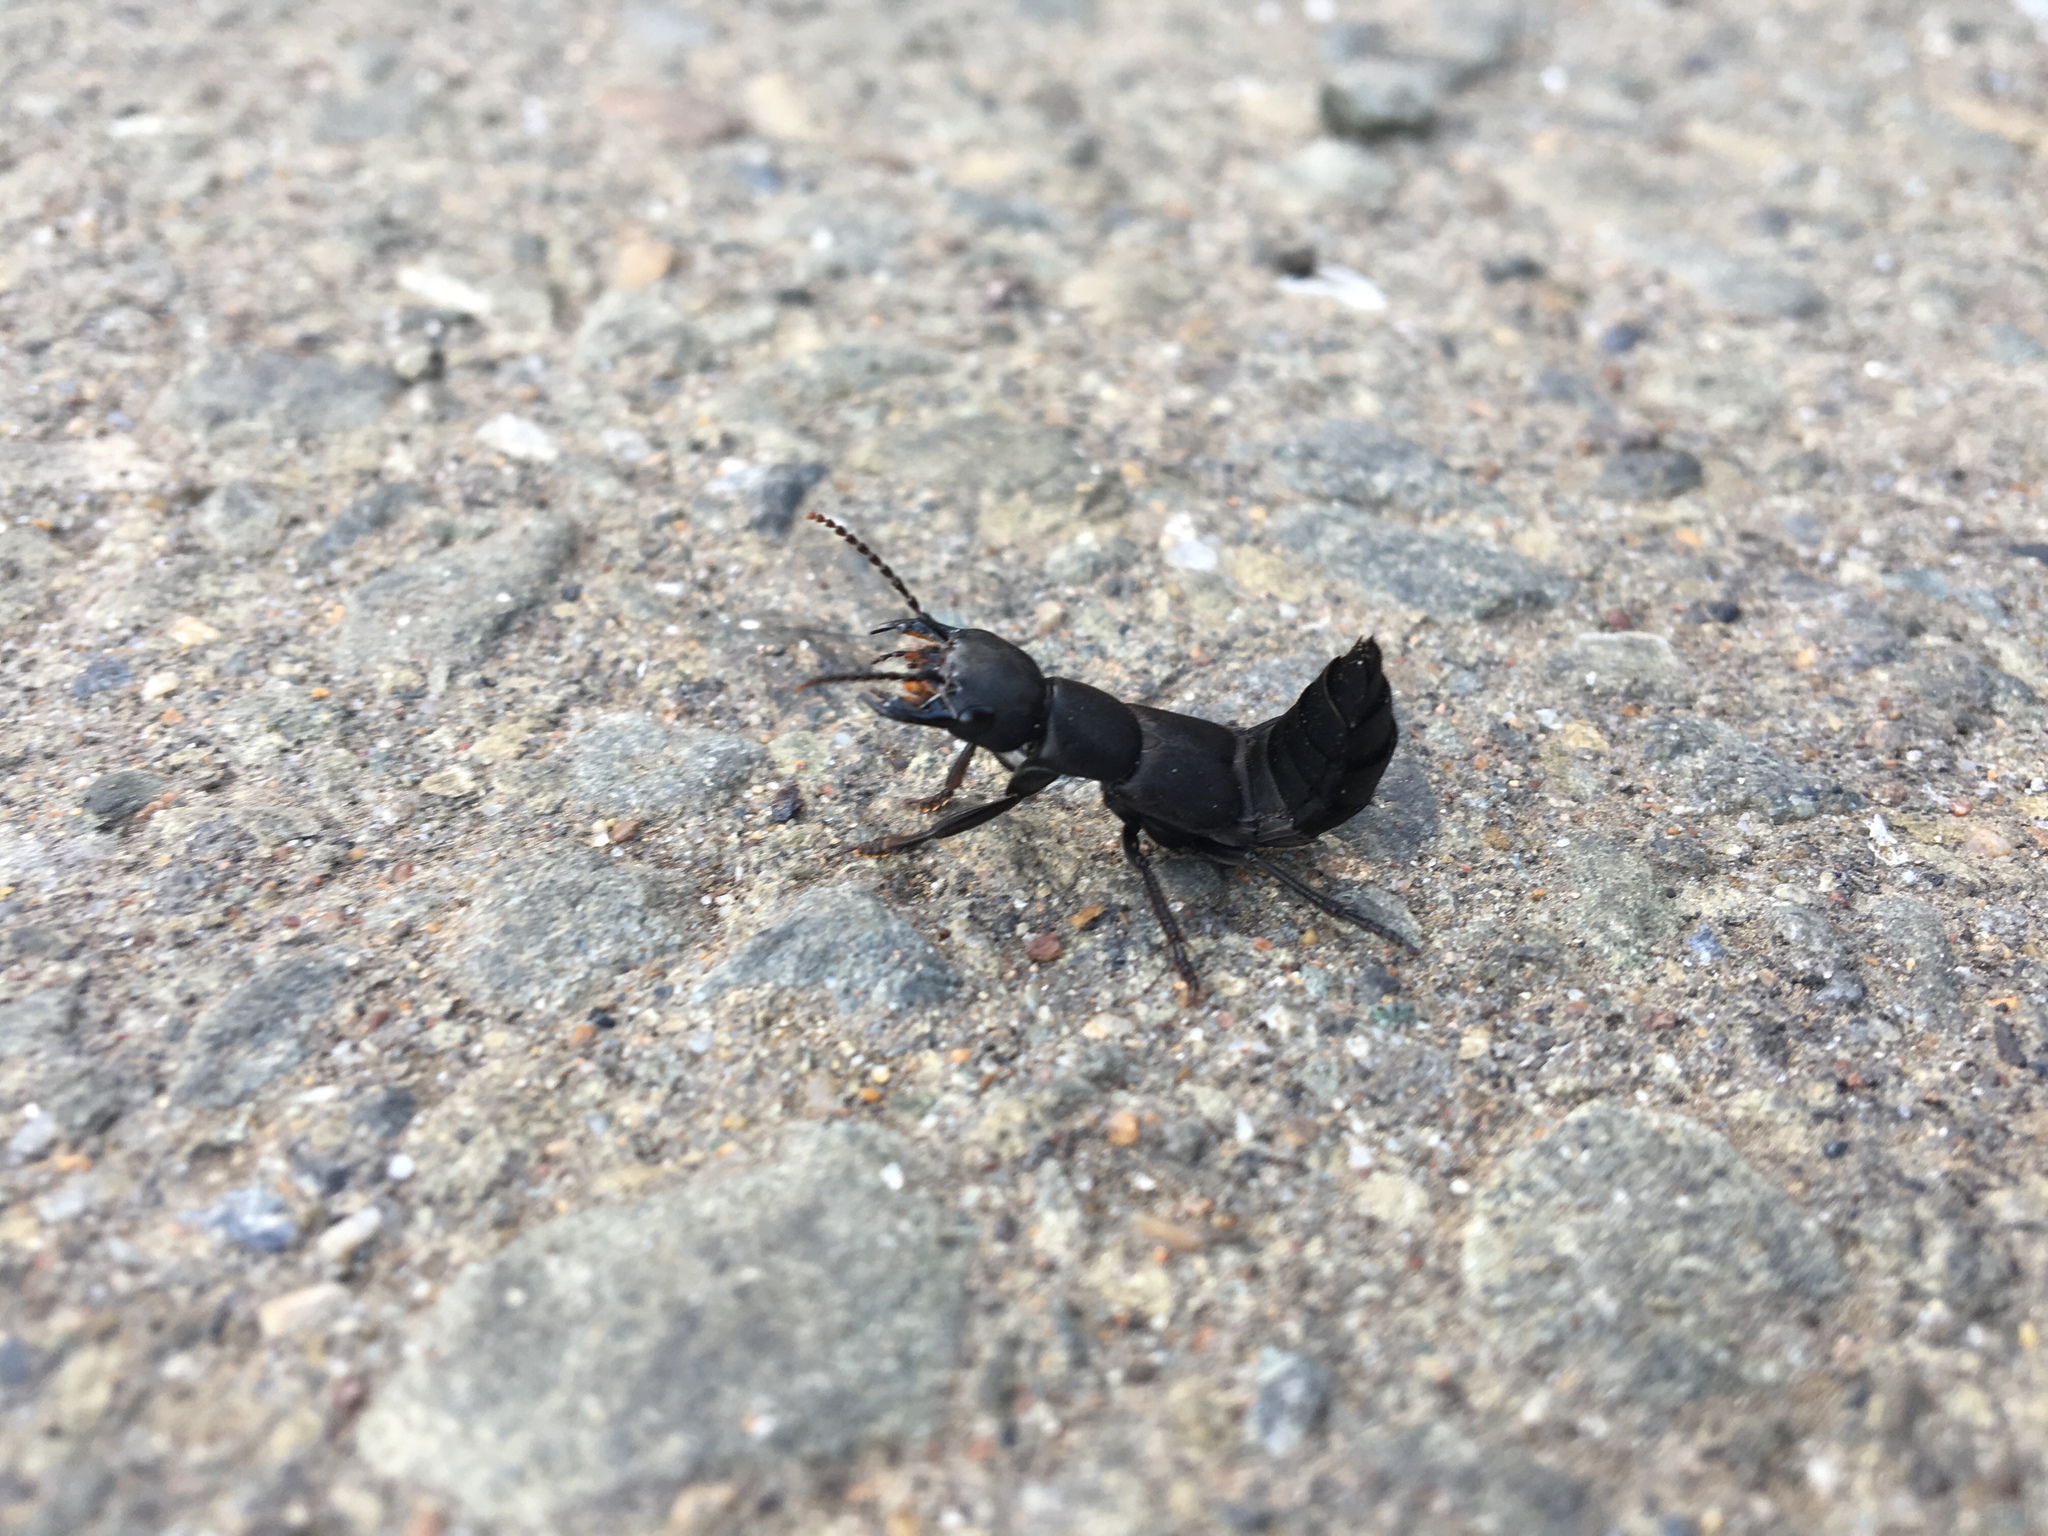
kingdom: Animalia
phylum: Arthropoda
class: Insecta
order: Coleoptera
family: Staphylinidae
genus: Ocypus
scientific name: Ocypus olens
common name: Devil's coach-horse
